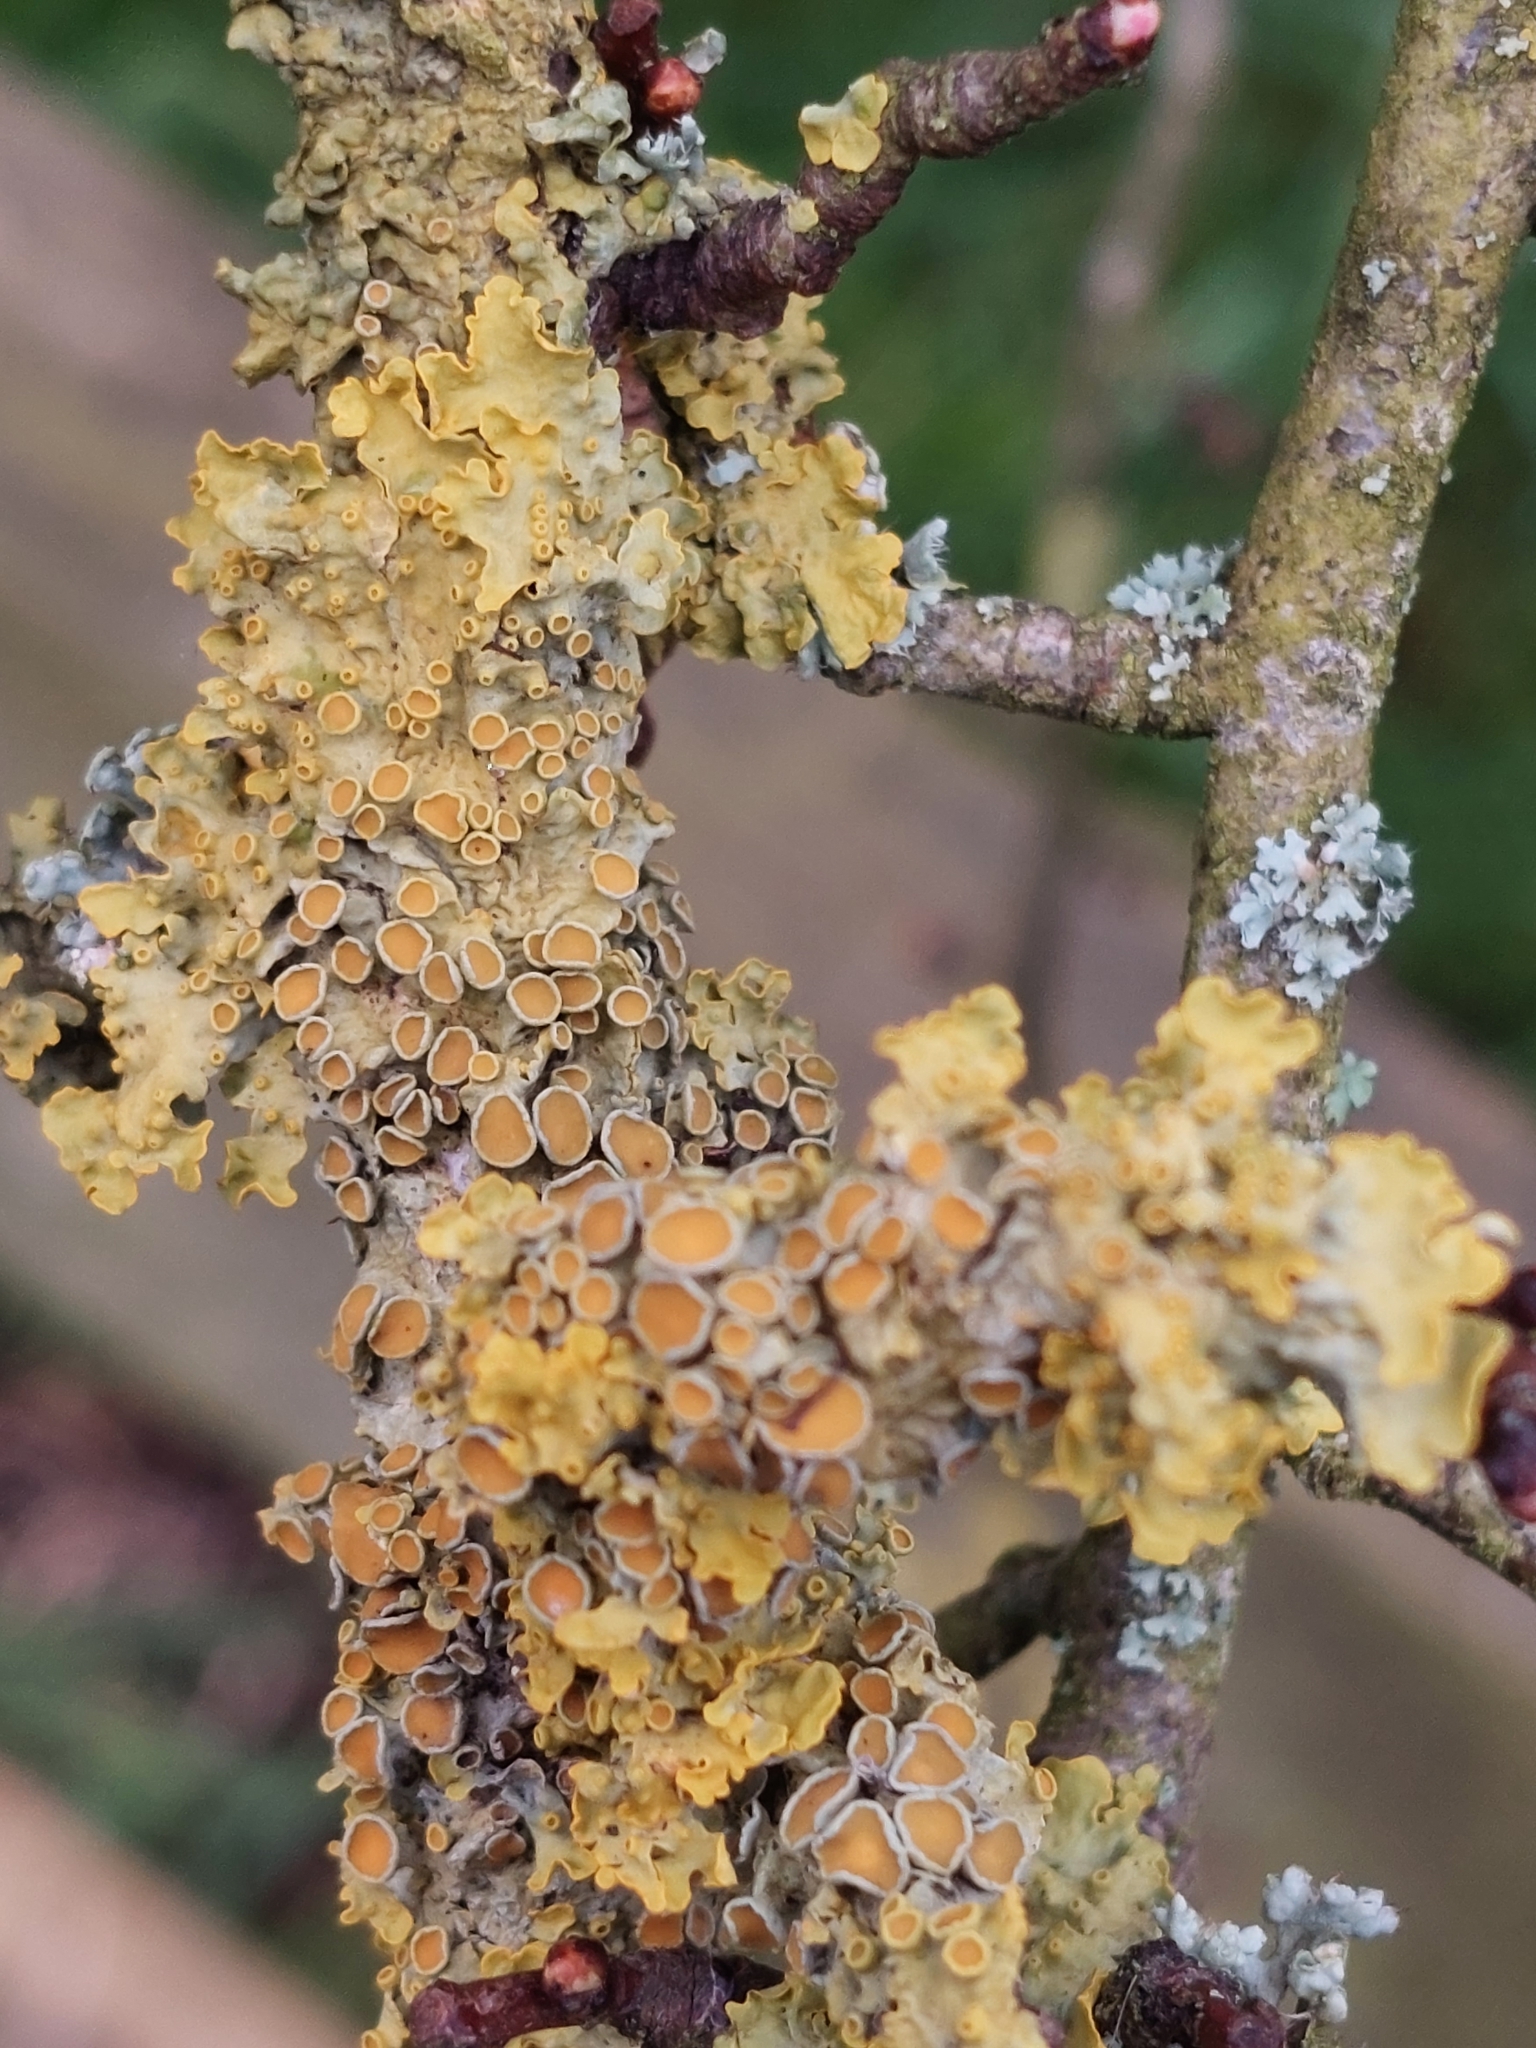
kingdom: Fungi
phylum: Ascomycota
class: Lecanoromycetes
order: Teloschistales
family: Teloschistaceae
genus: Xanthoria
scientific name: Xanthoria parietina
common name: Common orange lichen
